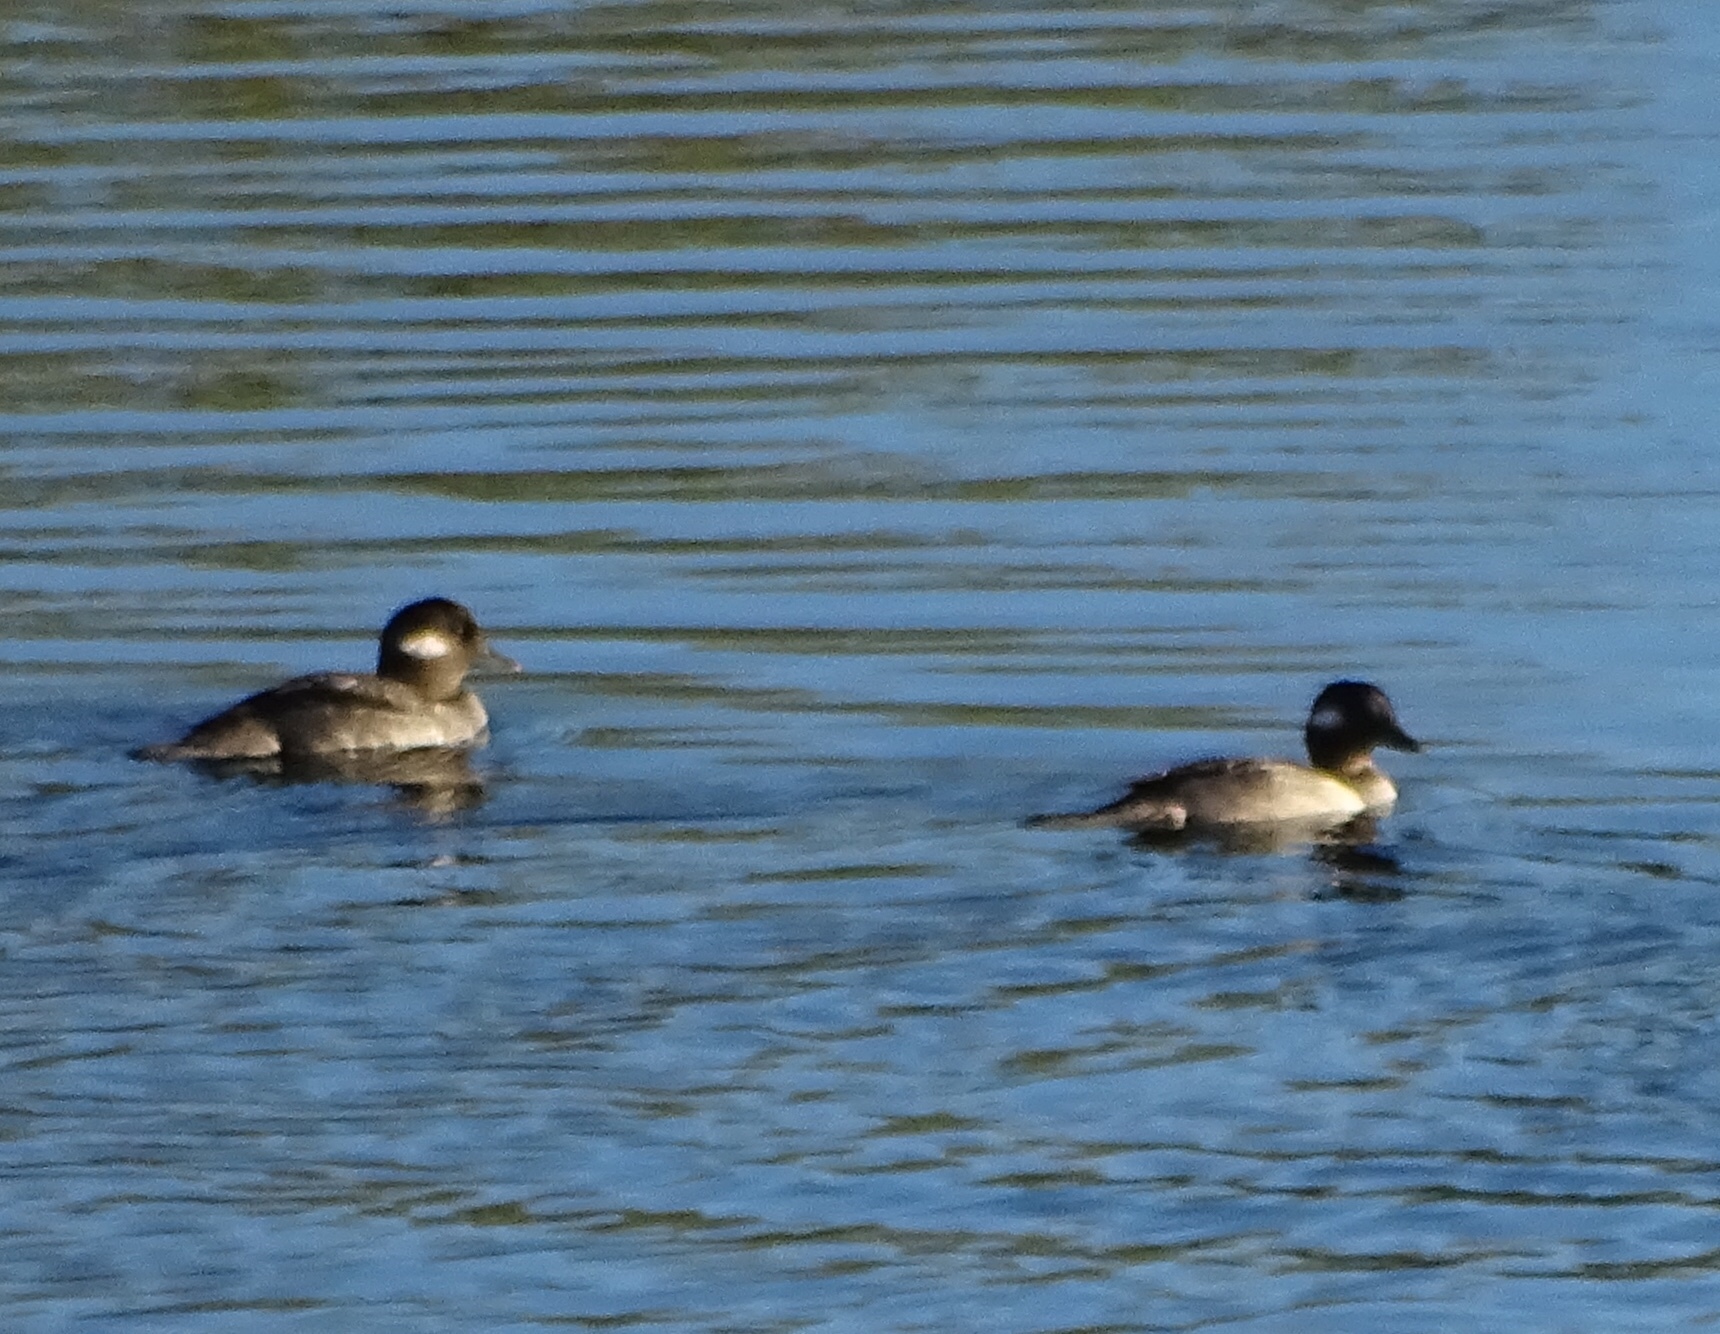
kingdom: Animalia
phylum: Chordata
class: Aves
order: Anseriformes
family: Anatidae
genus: Bucephala
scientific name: Bucephala albeola
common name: Bufflehead
